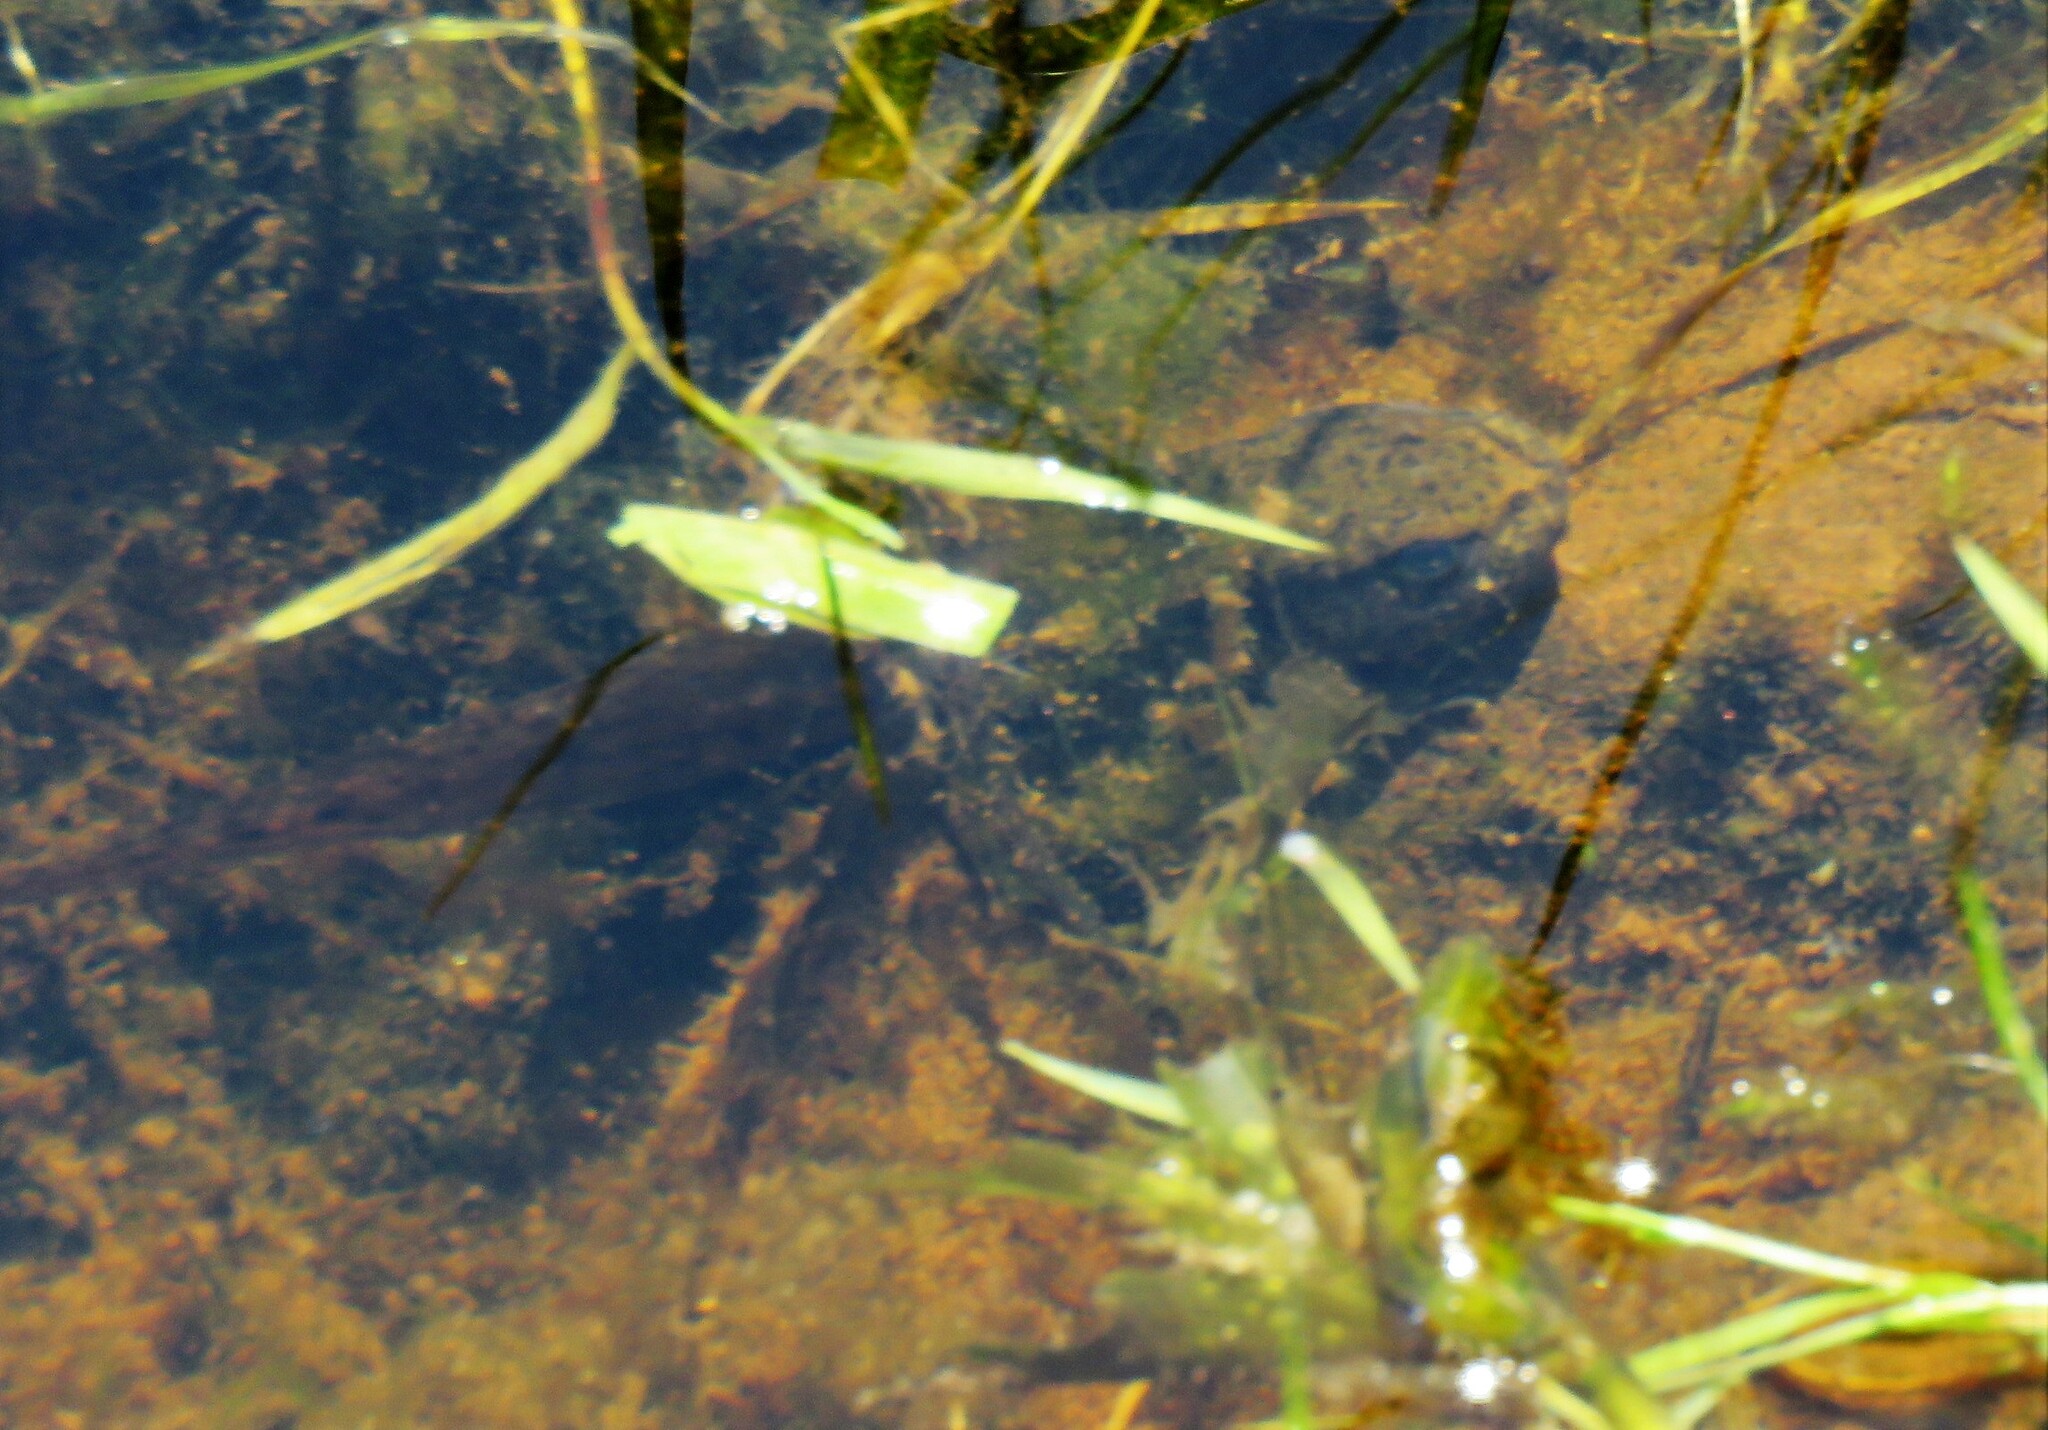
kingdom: Animalia
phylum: Chordata
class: Amphibia
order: Anura
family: Ranidae
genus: Lithobates
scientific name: Lithobates clamitans
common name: Green frog
